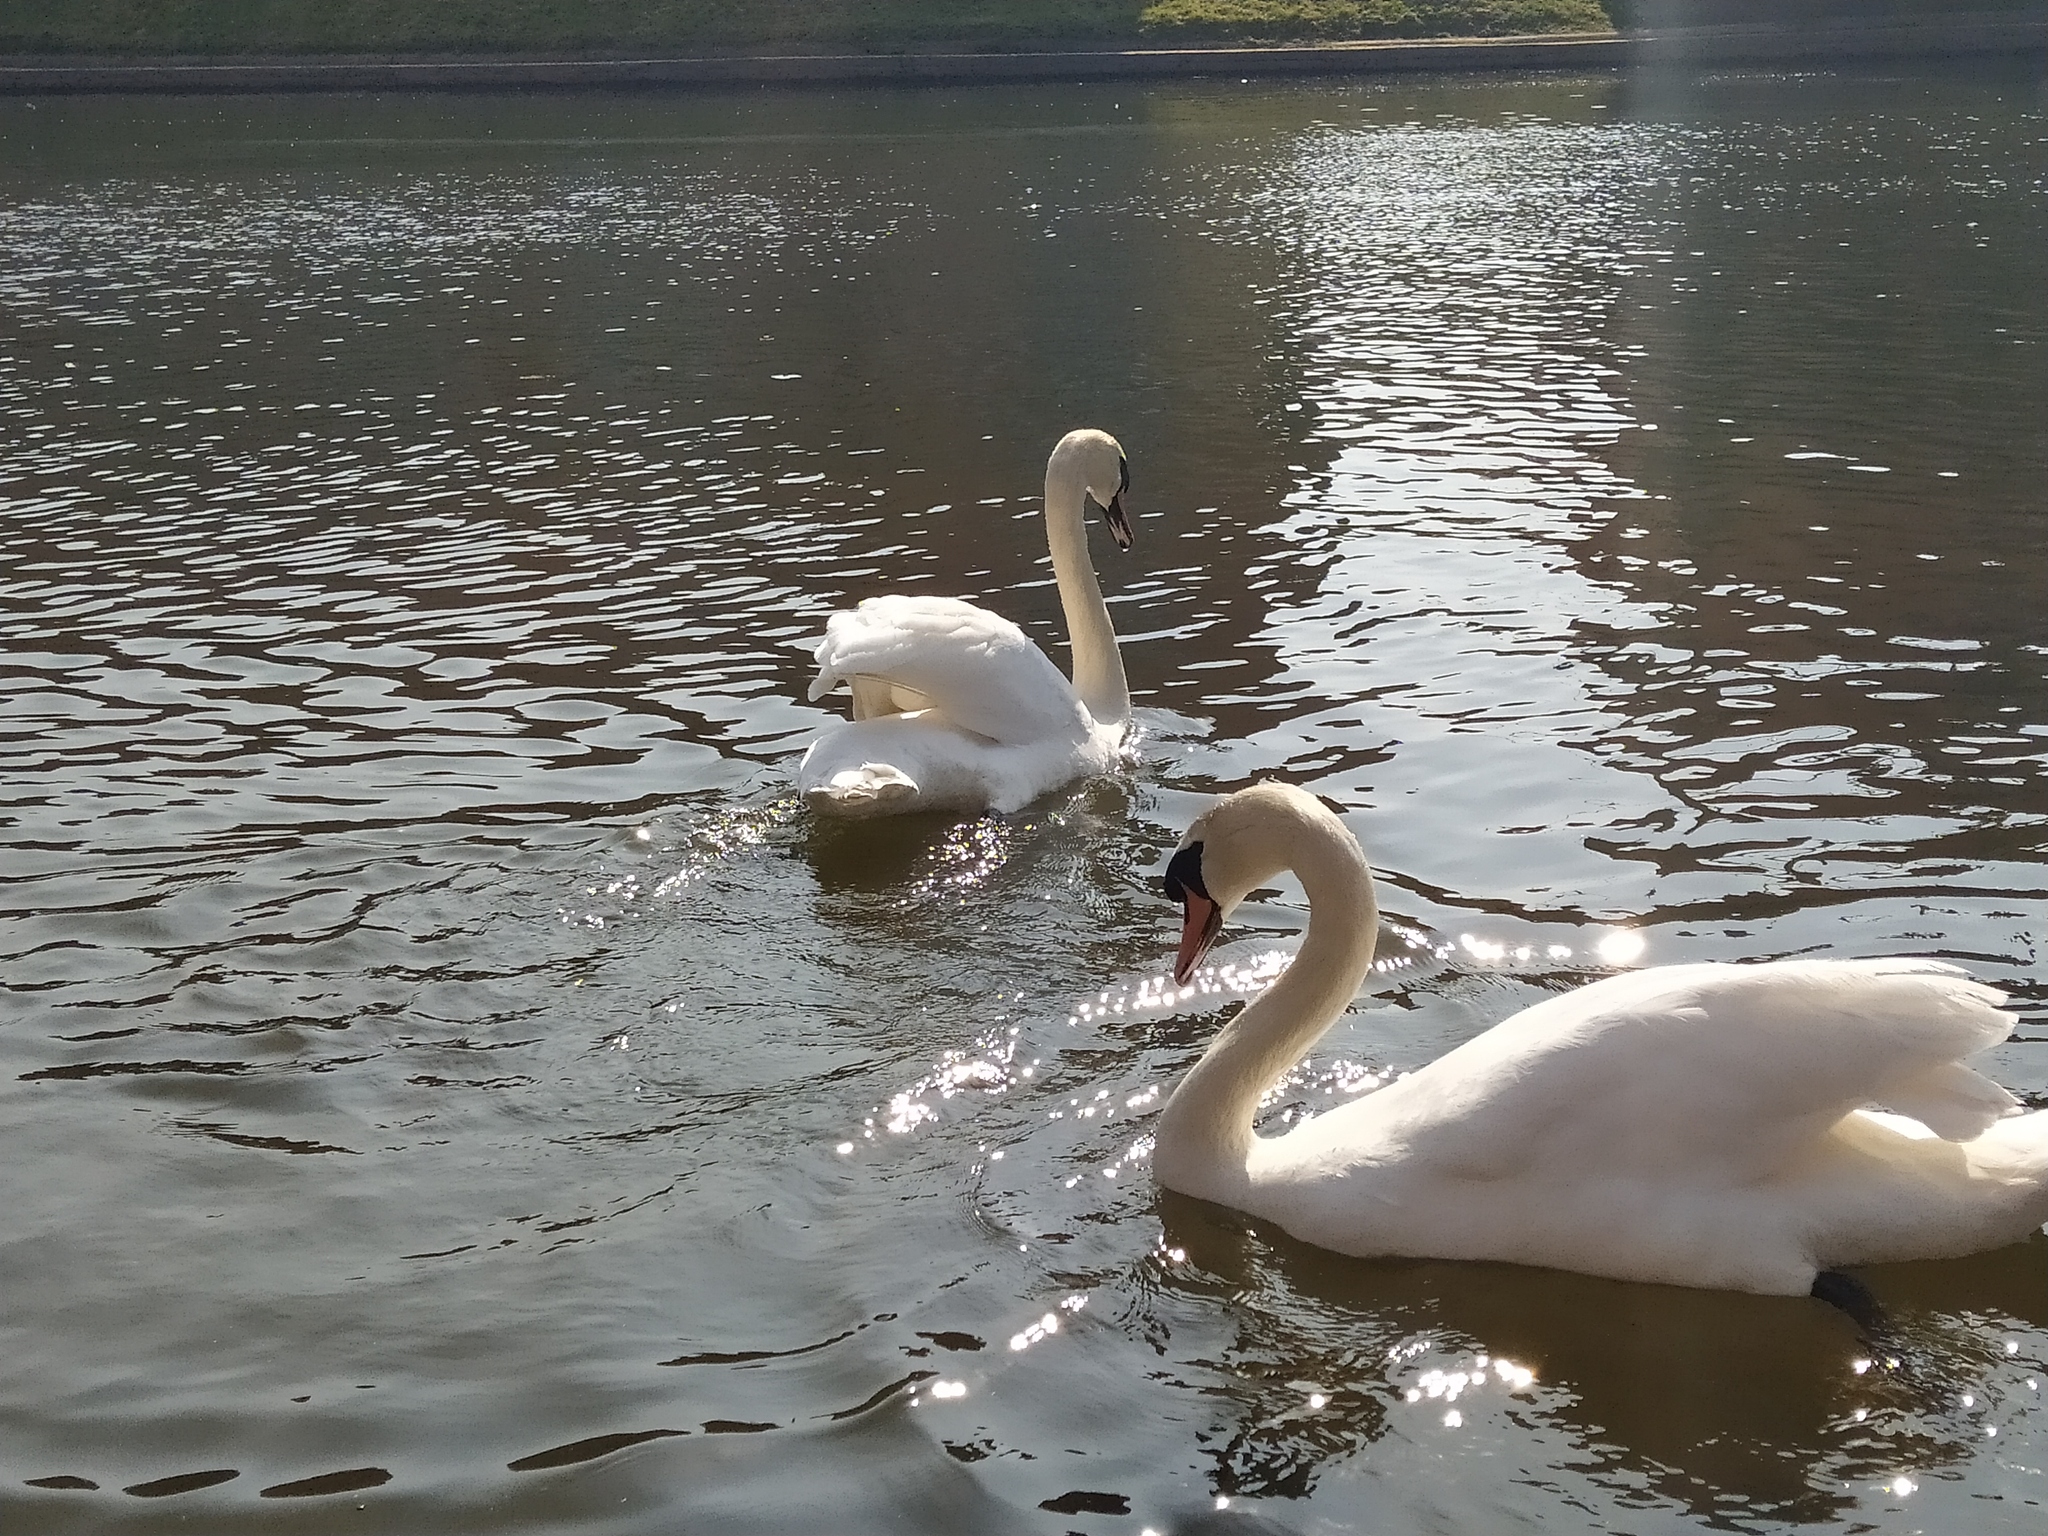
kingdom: Animalia
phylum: Chordata
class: Aves
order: Anseriformes
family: Anatidae
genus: Cygnus
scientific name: Cygnus olor
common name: Mute swan
